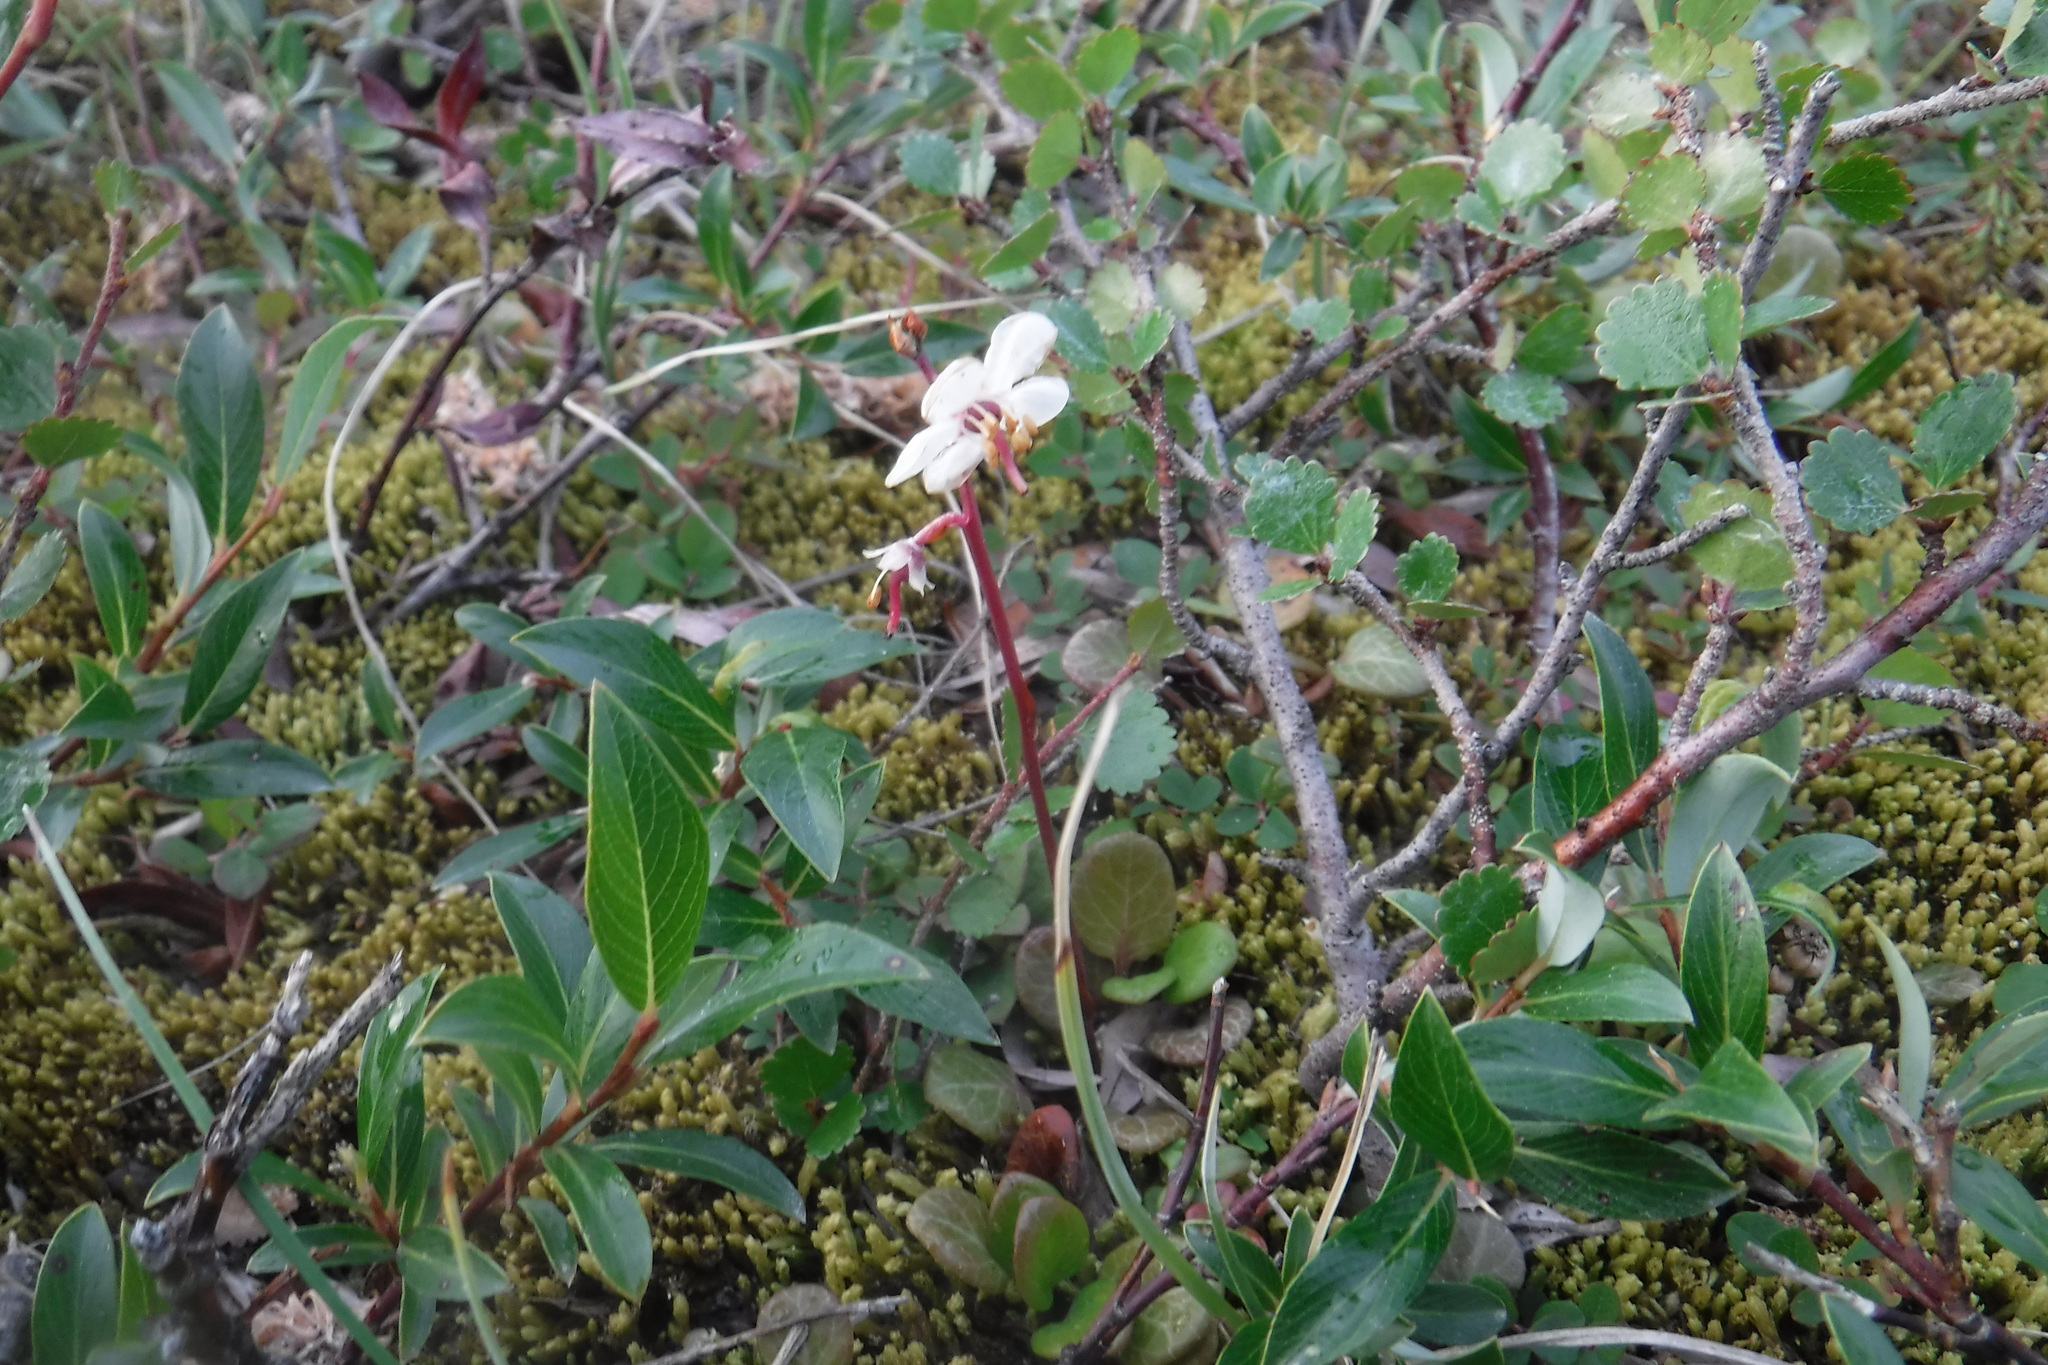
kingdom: Plantae
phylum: Tracheophyta
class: Magnoliopsida
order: Ericales
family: Ericaceae
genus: Pyrola
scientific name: Pyrola grandiflora
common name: Arctic pyrola
